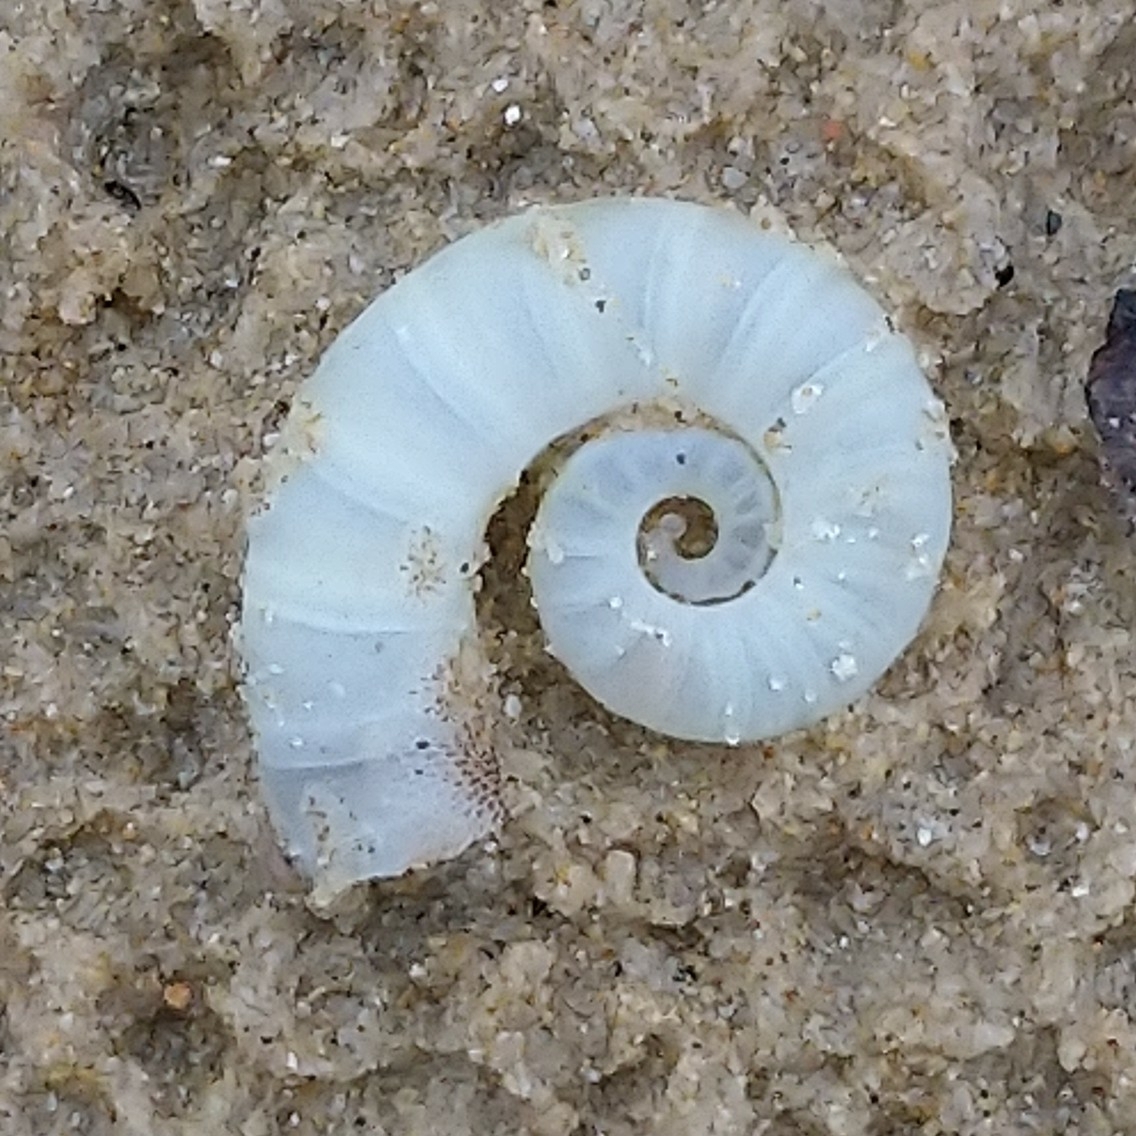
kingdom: Animalia
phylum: Mollusca
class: Cephalopoda
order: Spirulida
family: Spirulidae
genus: Spirula
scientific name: Spirula spirula
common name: Ram's horn squid
